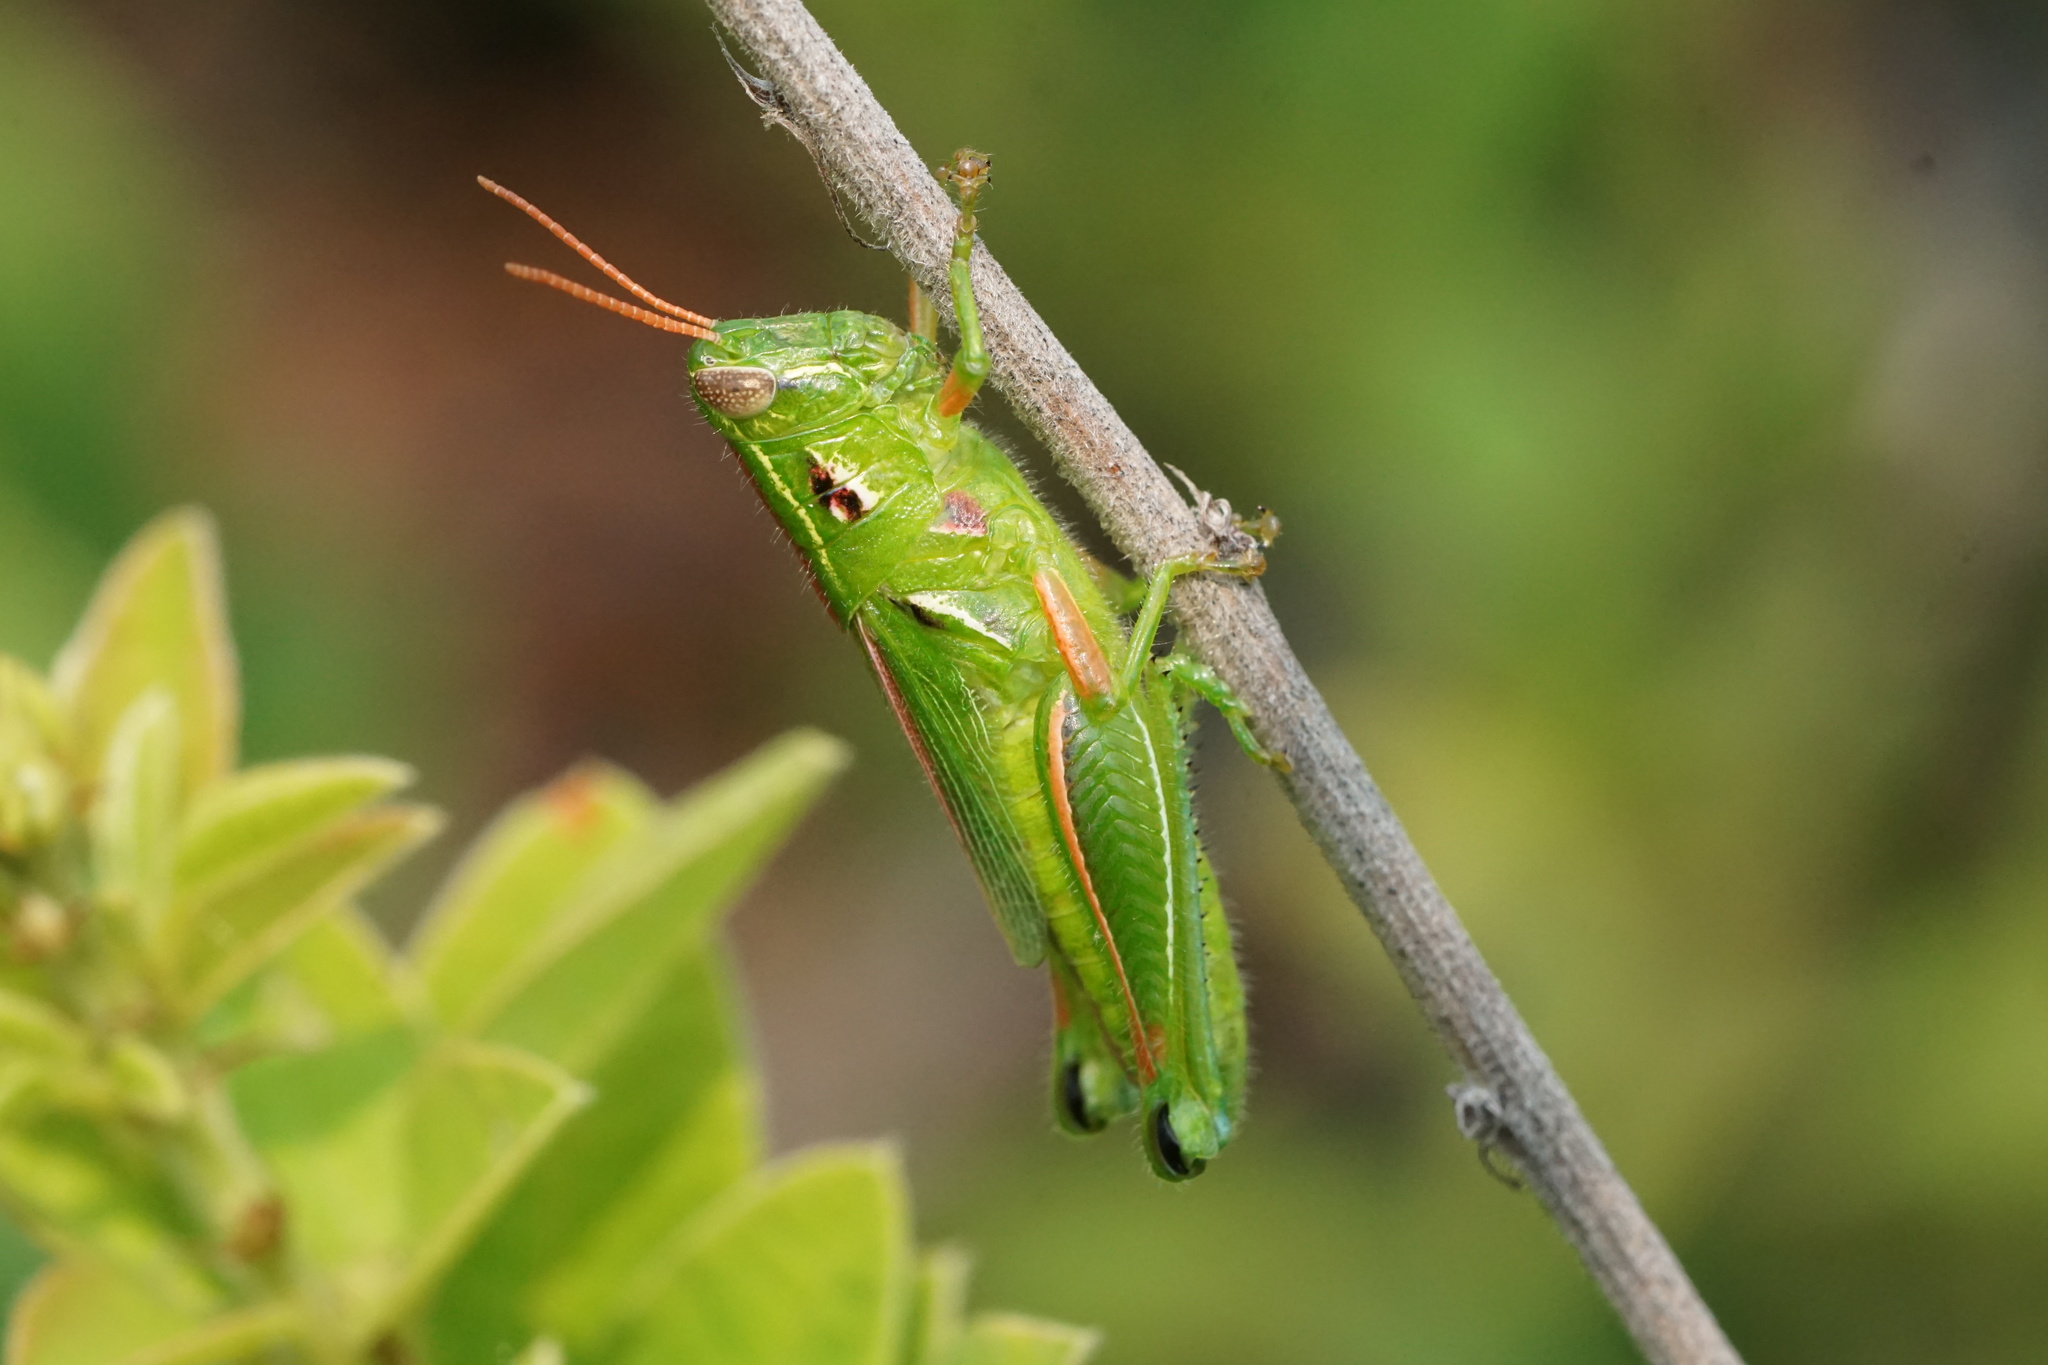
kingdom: Animalia
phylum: Arthropoda
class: Insecta
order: Orthoptera
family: Acrididae
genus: Hesperotettix
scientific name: Hesperotettix viridis
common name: Meadow purple-striped grasshopper
